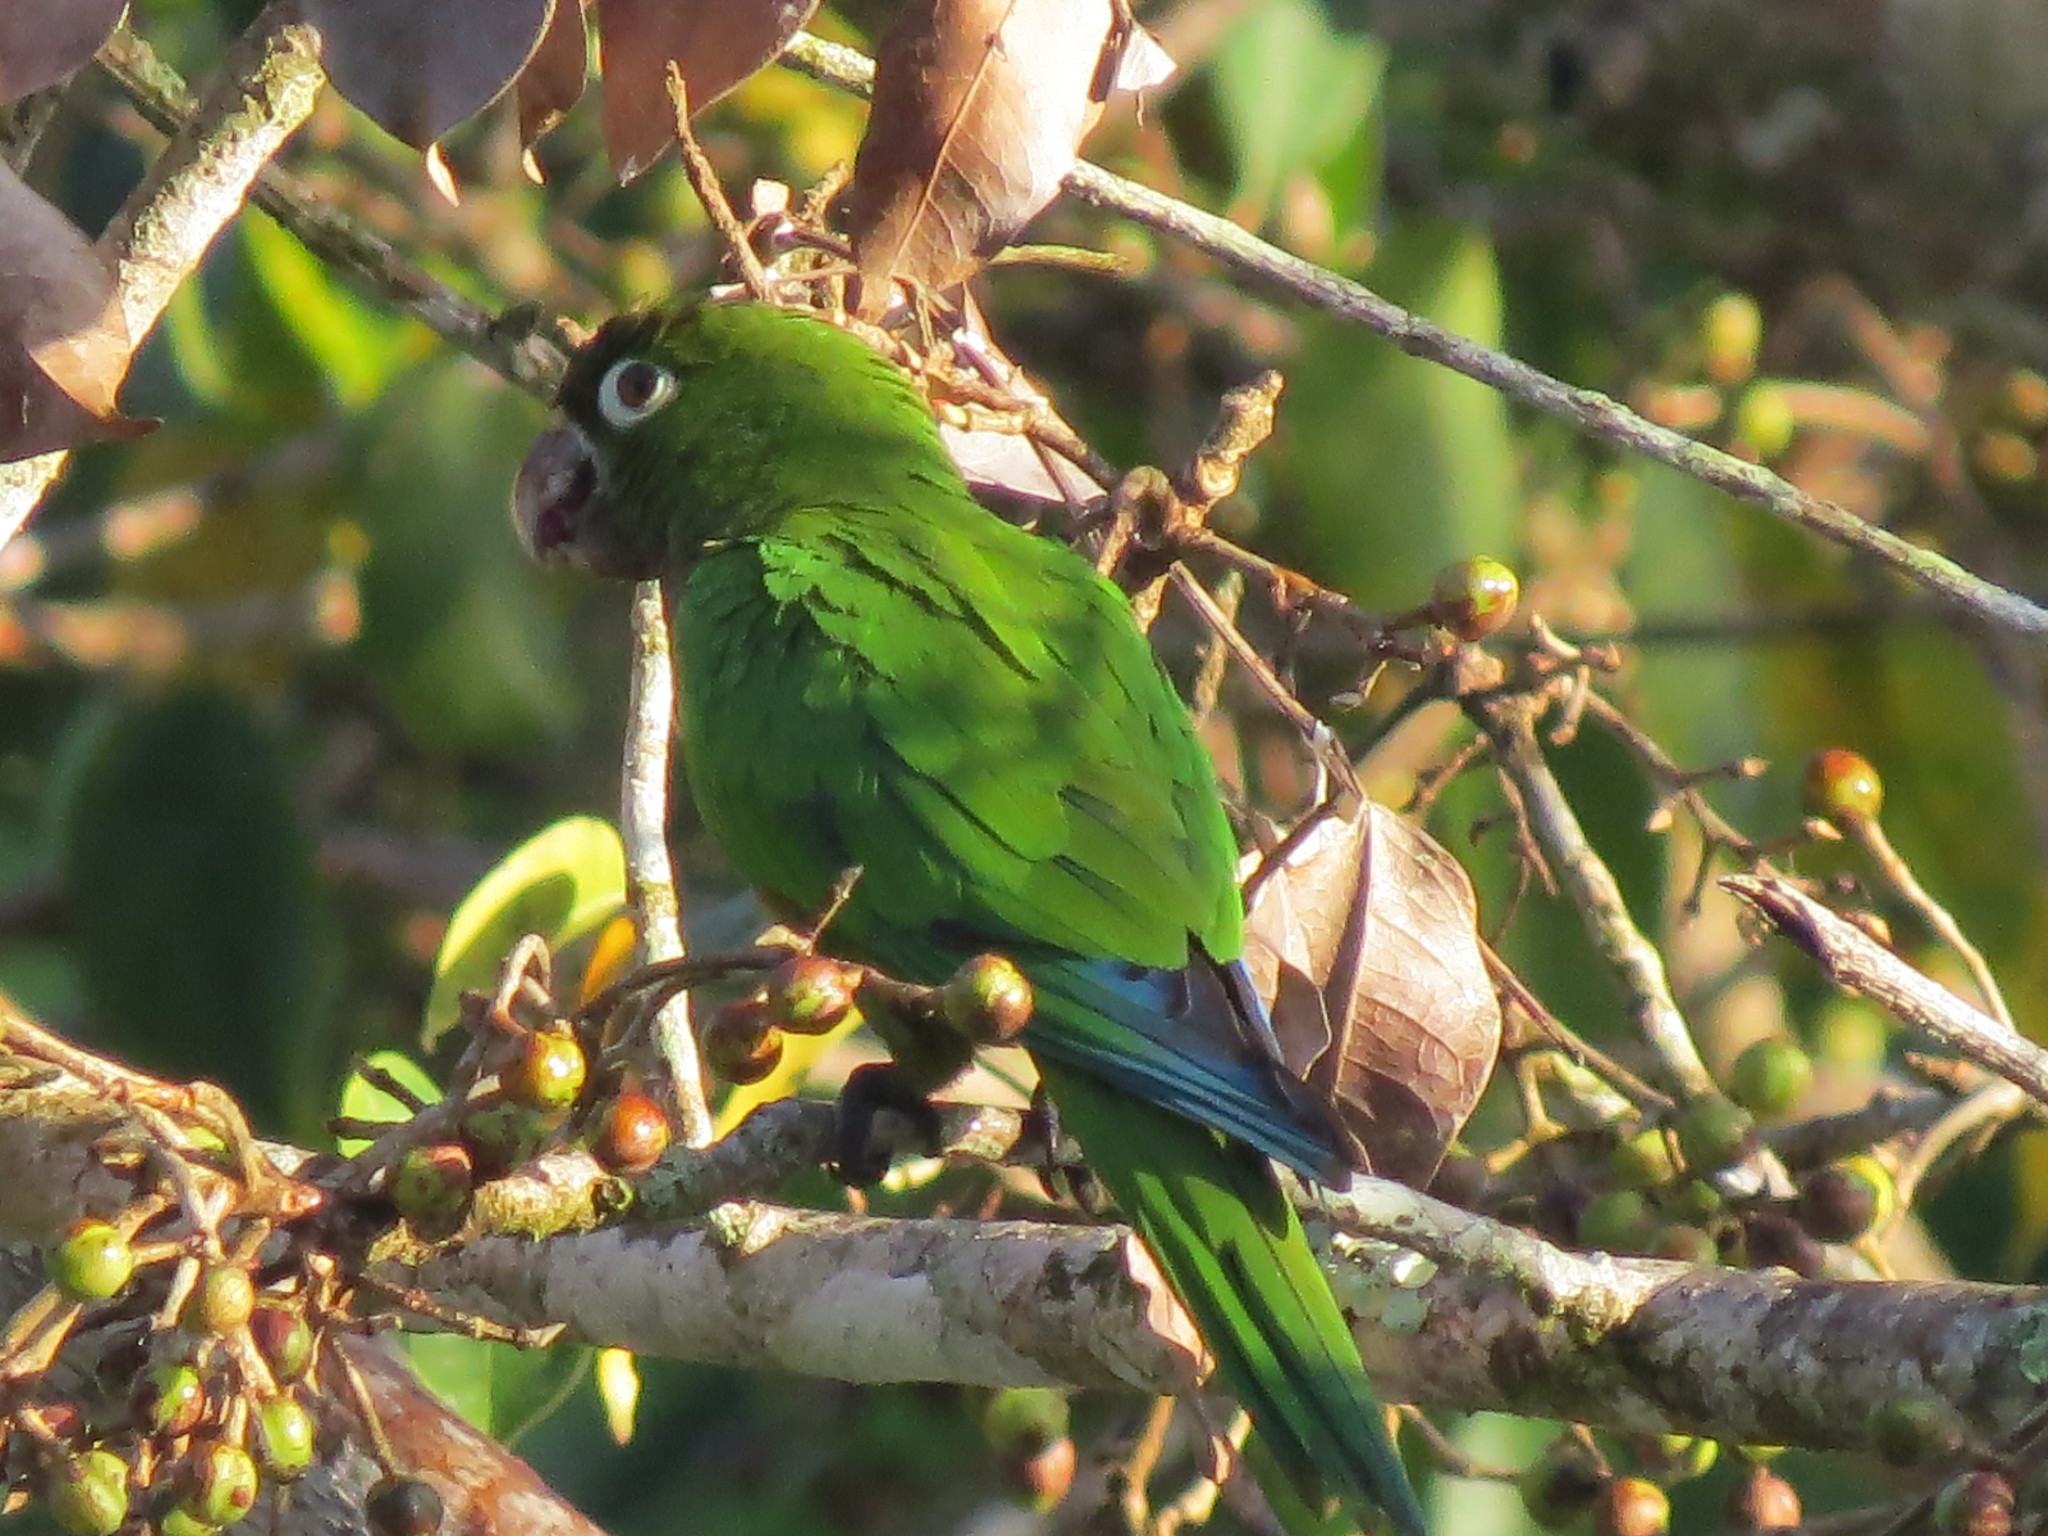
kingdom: Animalia
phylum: Chordata
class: Aves
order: Psittaciformes
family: Psittacidae
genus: Aratinga
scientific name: Aratinga nana
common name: Olive-throated parakeet
